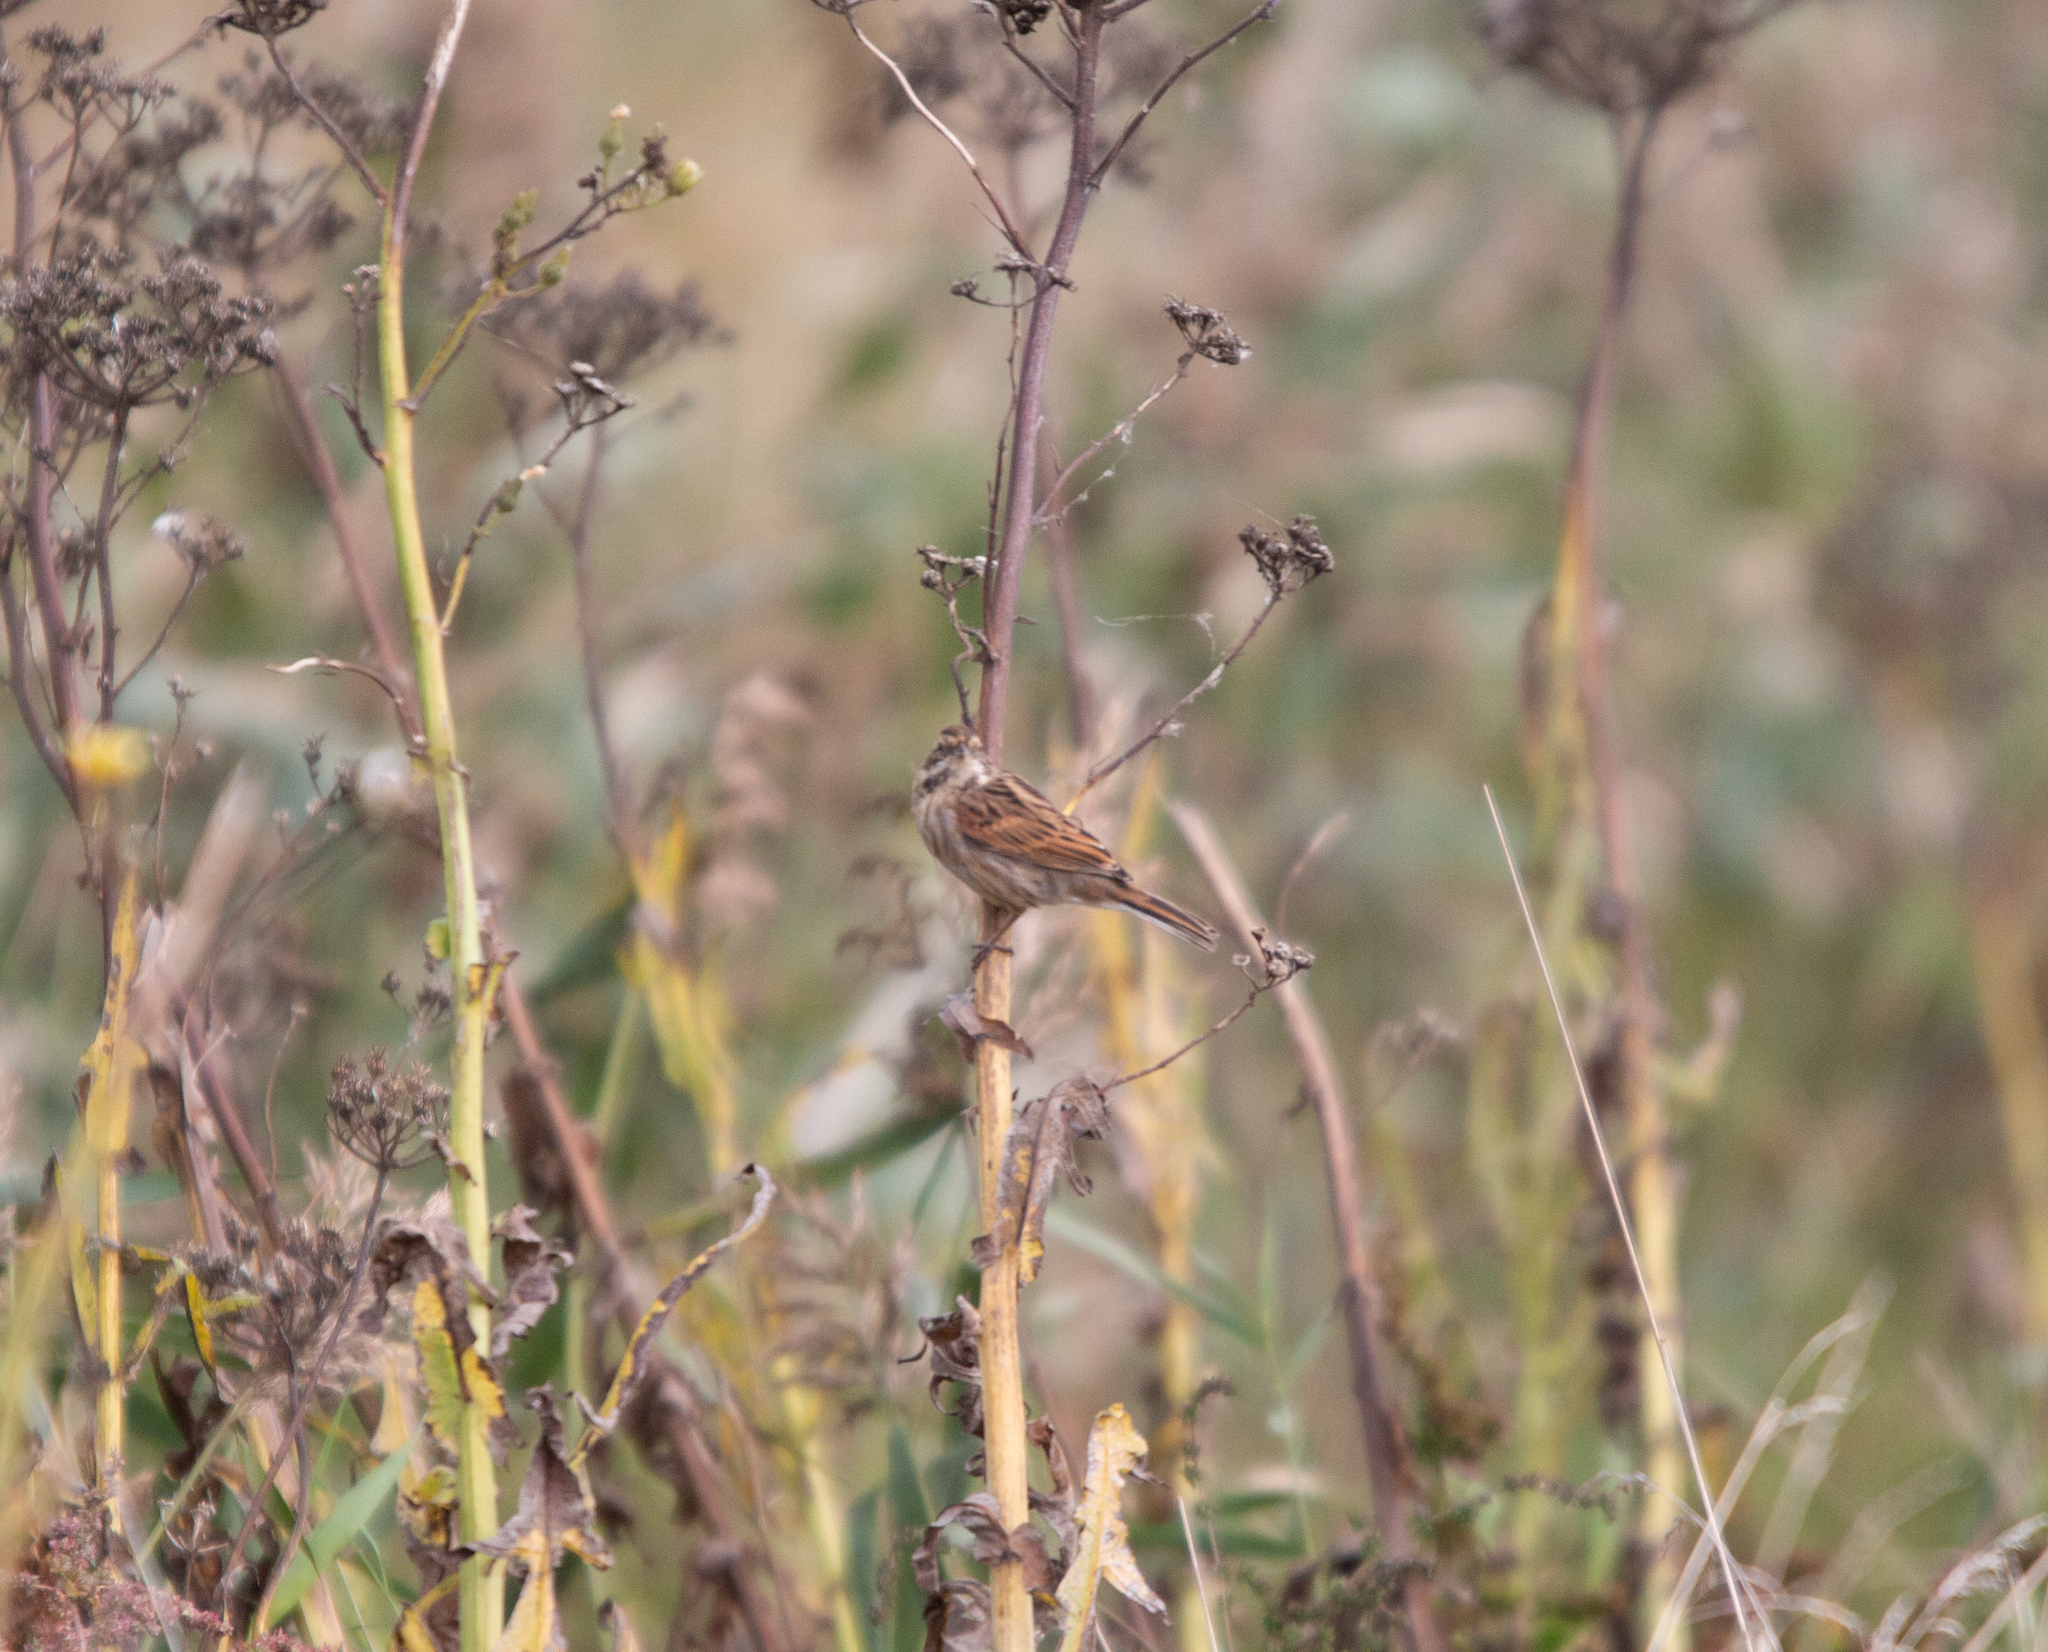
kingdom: Animalia
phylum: Chordata
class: Aves
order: Passeriformes
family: Emberizidae
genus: Emberiza
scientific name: Emberiza schoeniclus
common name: Reed bunting
